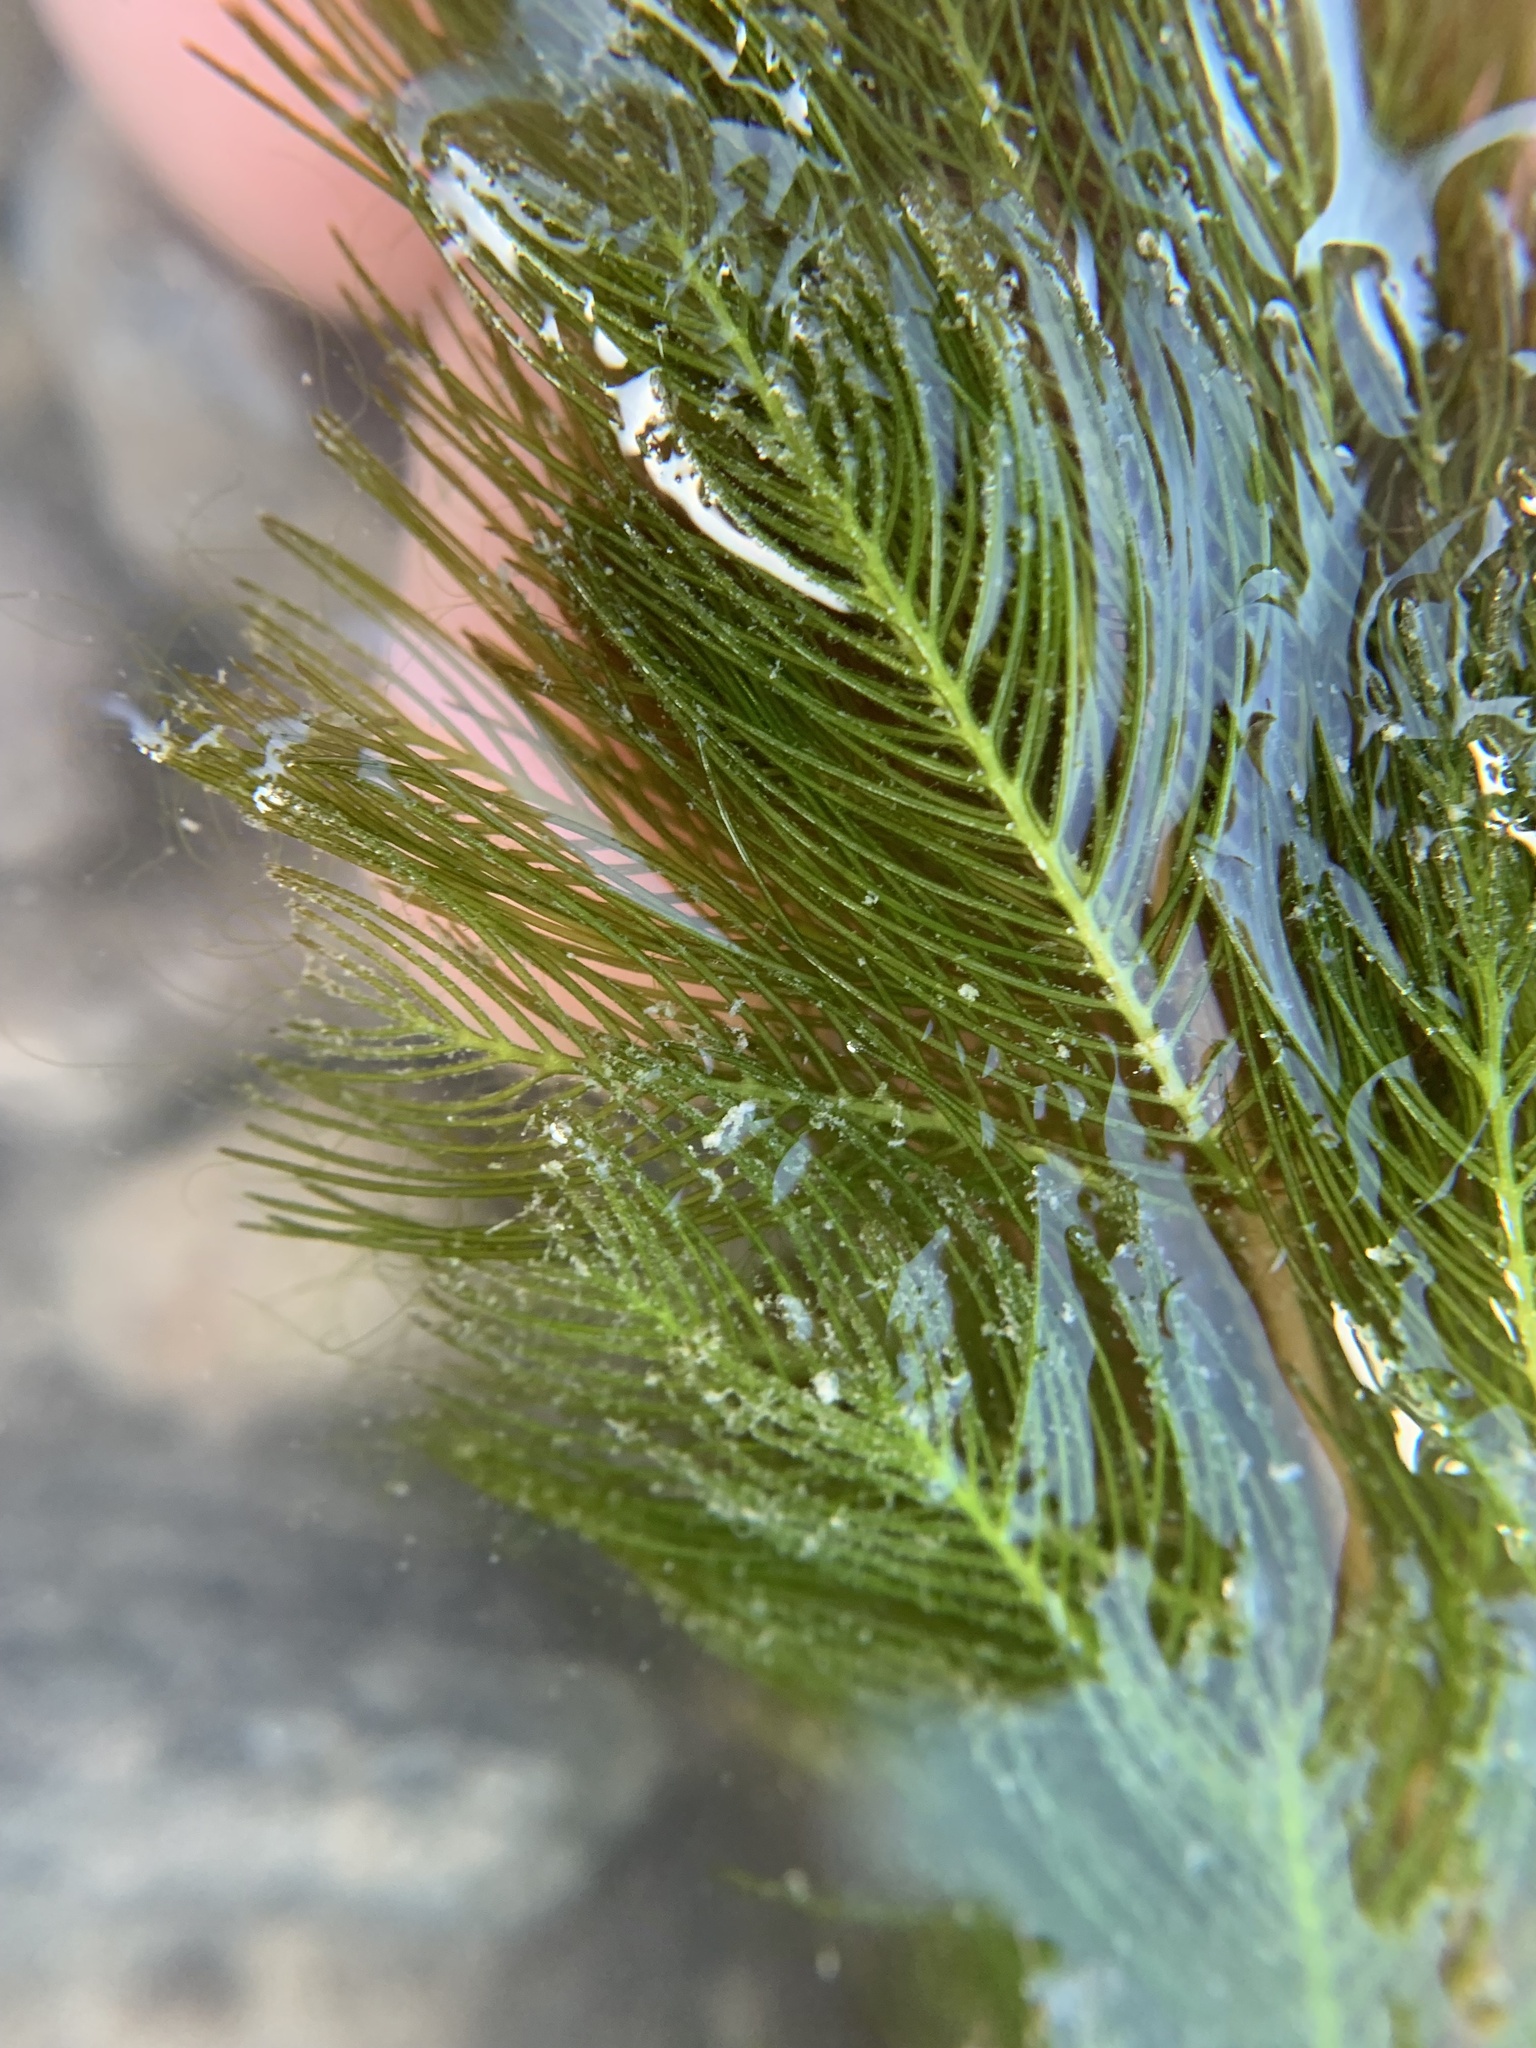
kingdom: Plantae
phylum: Tracheophyta
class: Magnoliopsida
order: Saxifragales
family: Haloragaceae
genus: Myriophyllum
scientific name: Myriophyllum spicatum
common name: Spiked water-milfoil
